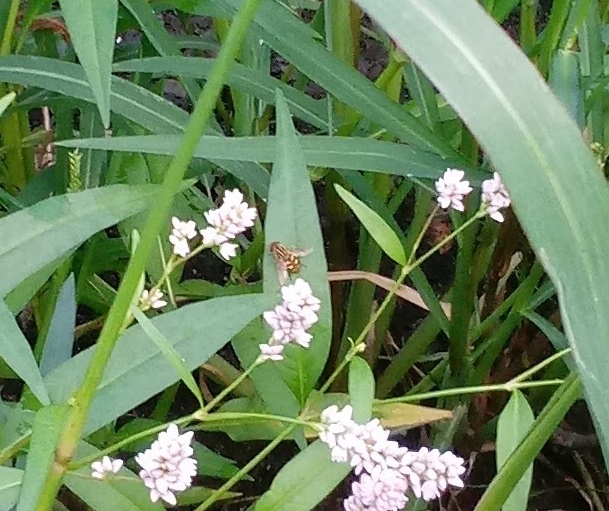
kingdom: Animalia
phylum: Arthropoda
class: Insecta
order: Diptera
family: Syrphidae
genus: Parhelophilus
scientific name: Parhelophilus
